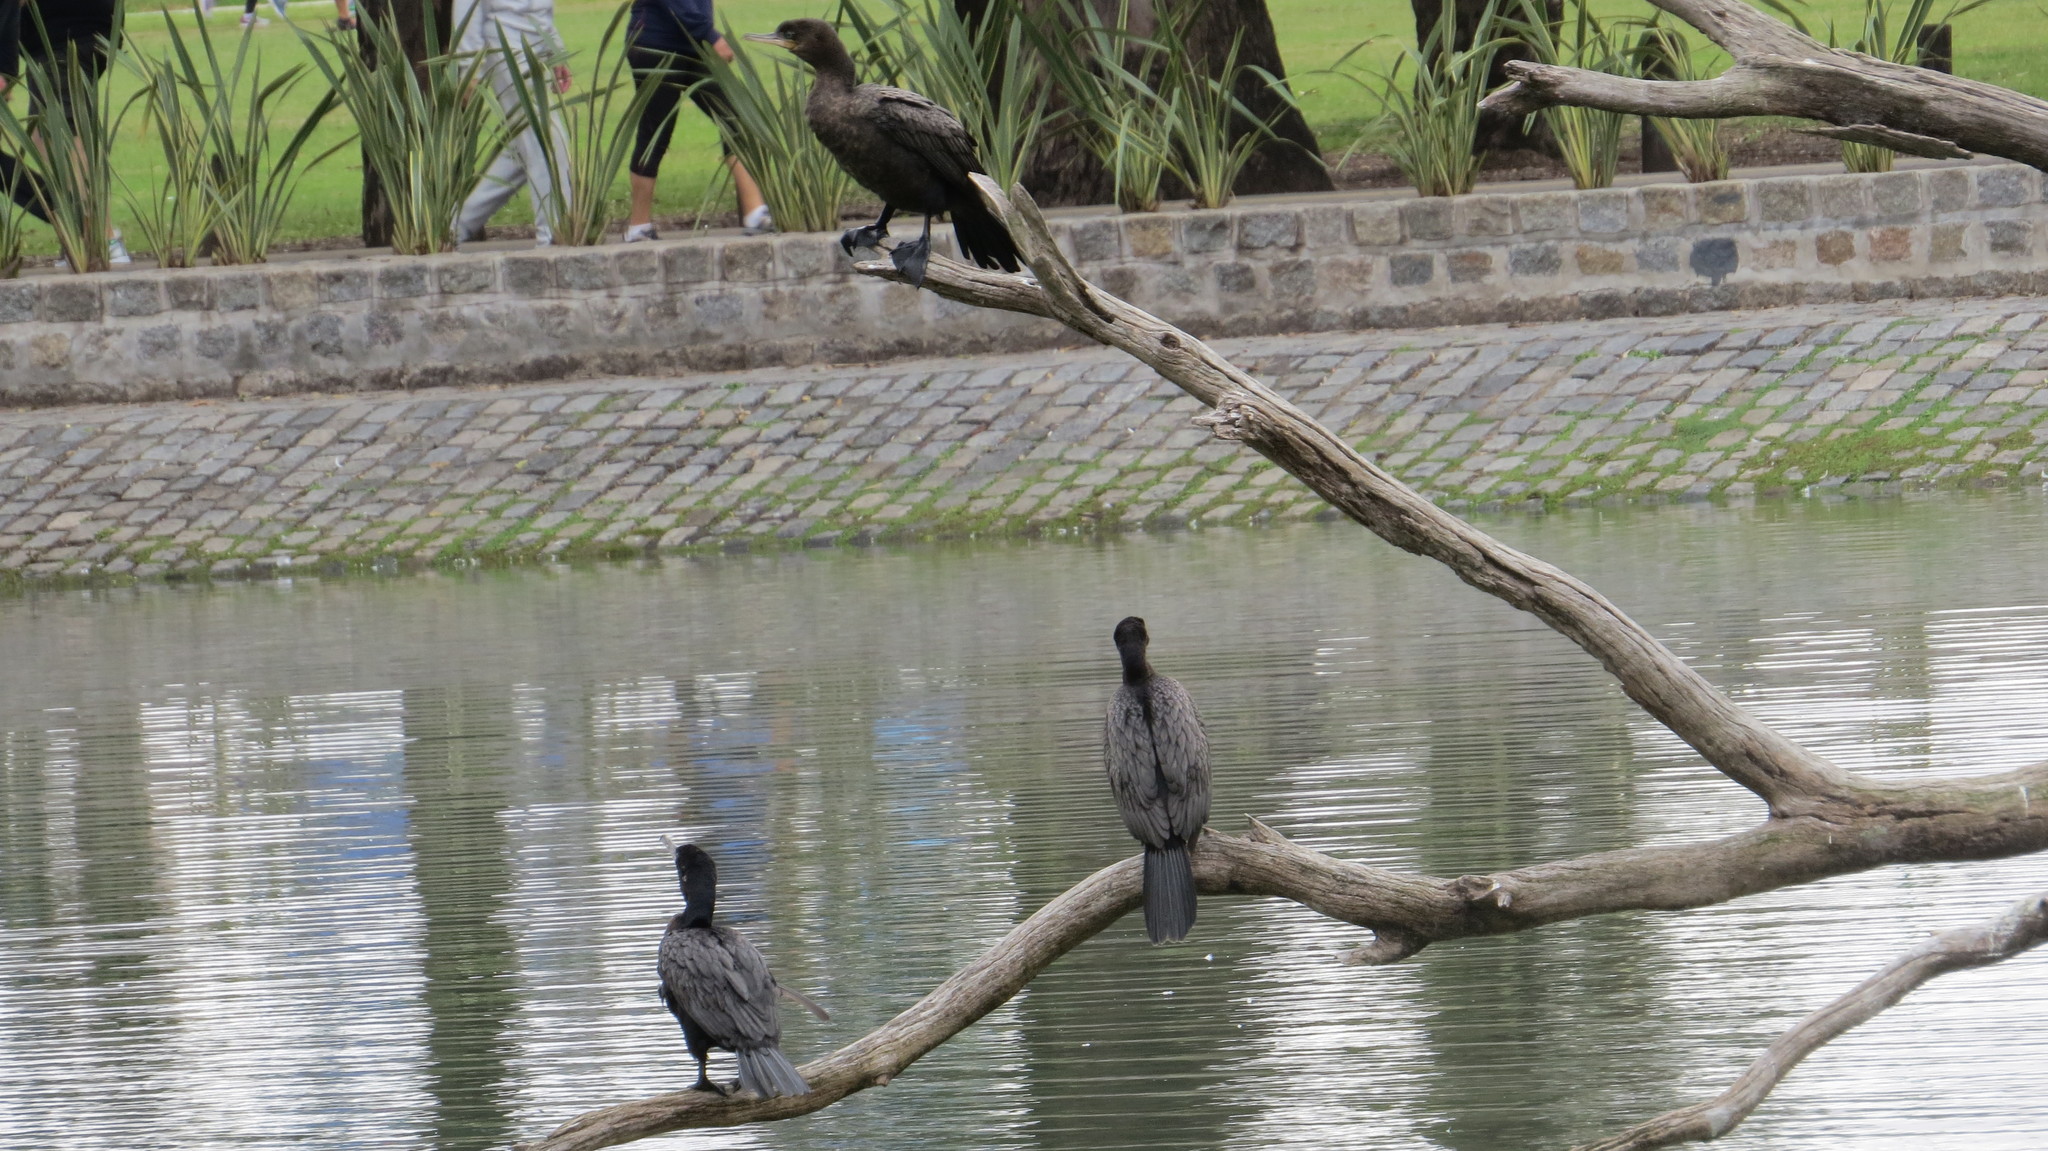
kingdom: Animalia
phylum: Chordata
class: Aves
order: Suliformes
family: Phalacrocoracidae
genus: Phalacrocorax
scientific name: Phalacrocorax brasilianus
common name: Neotropic cormorant
